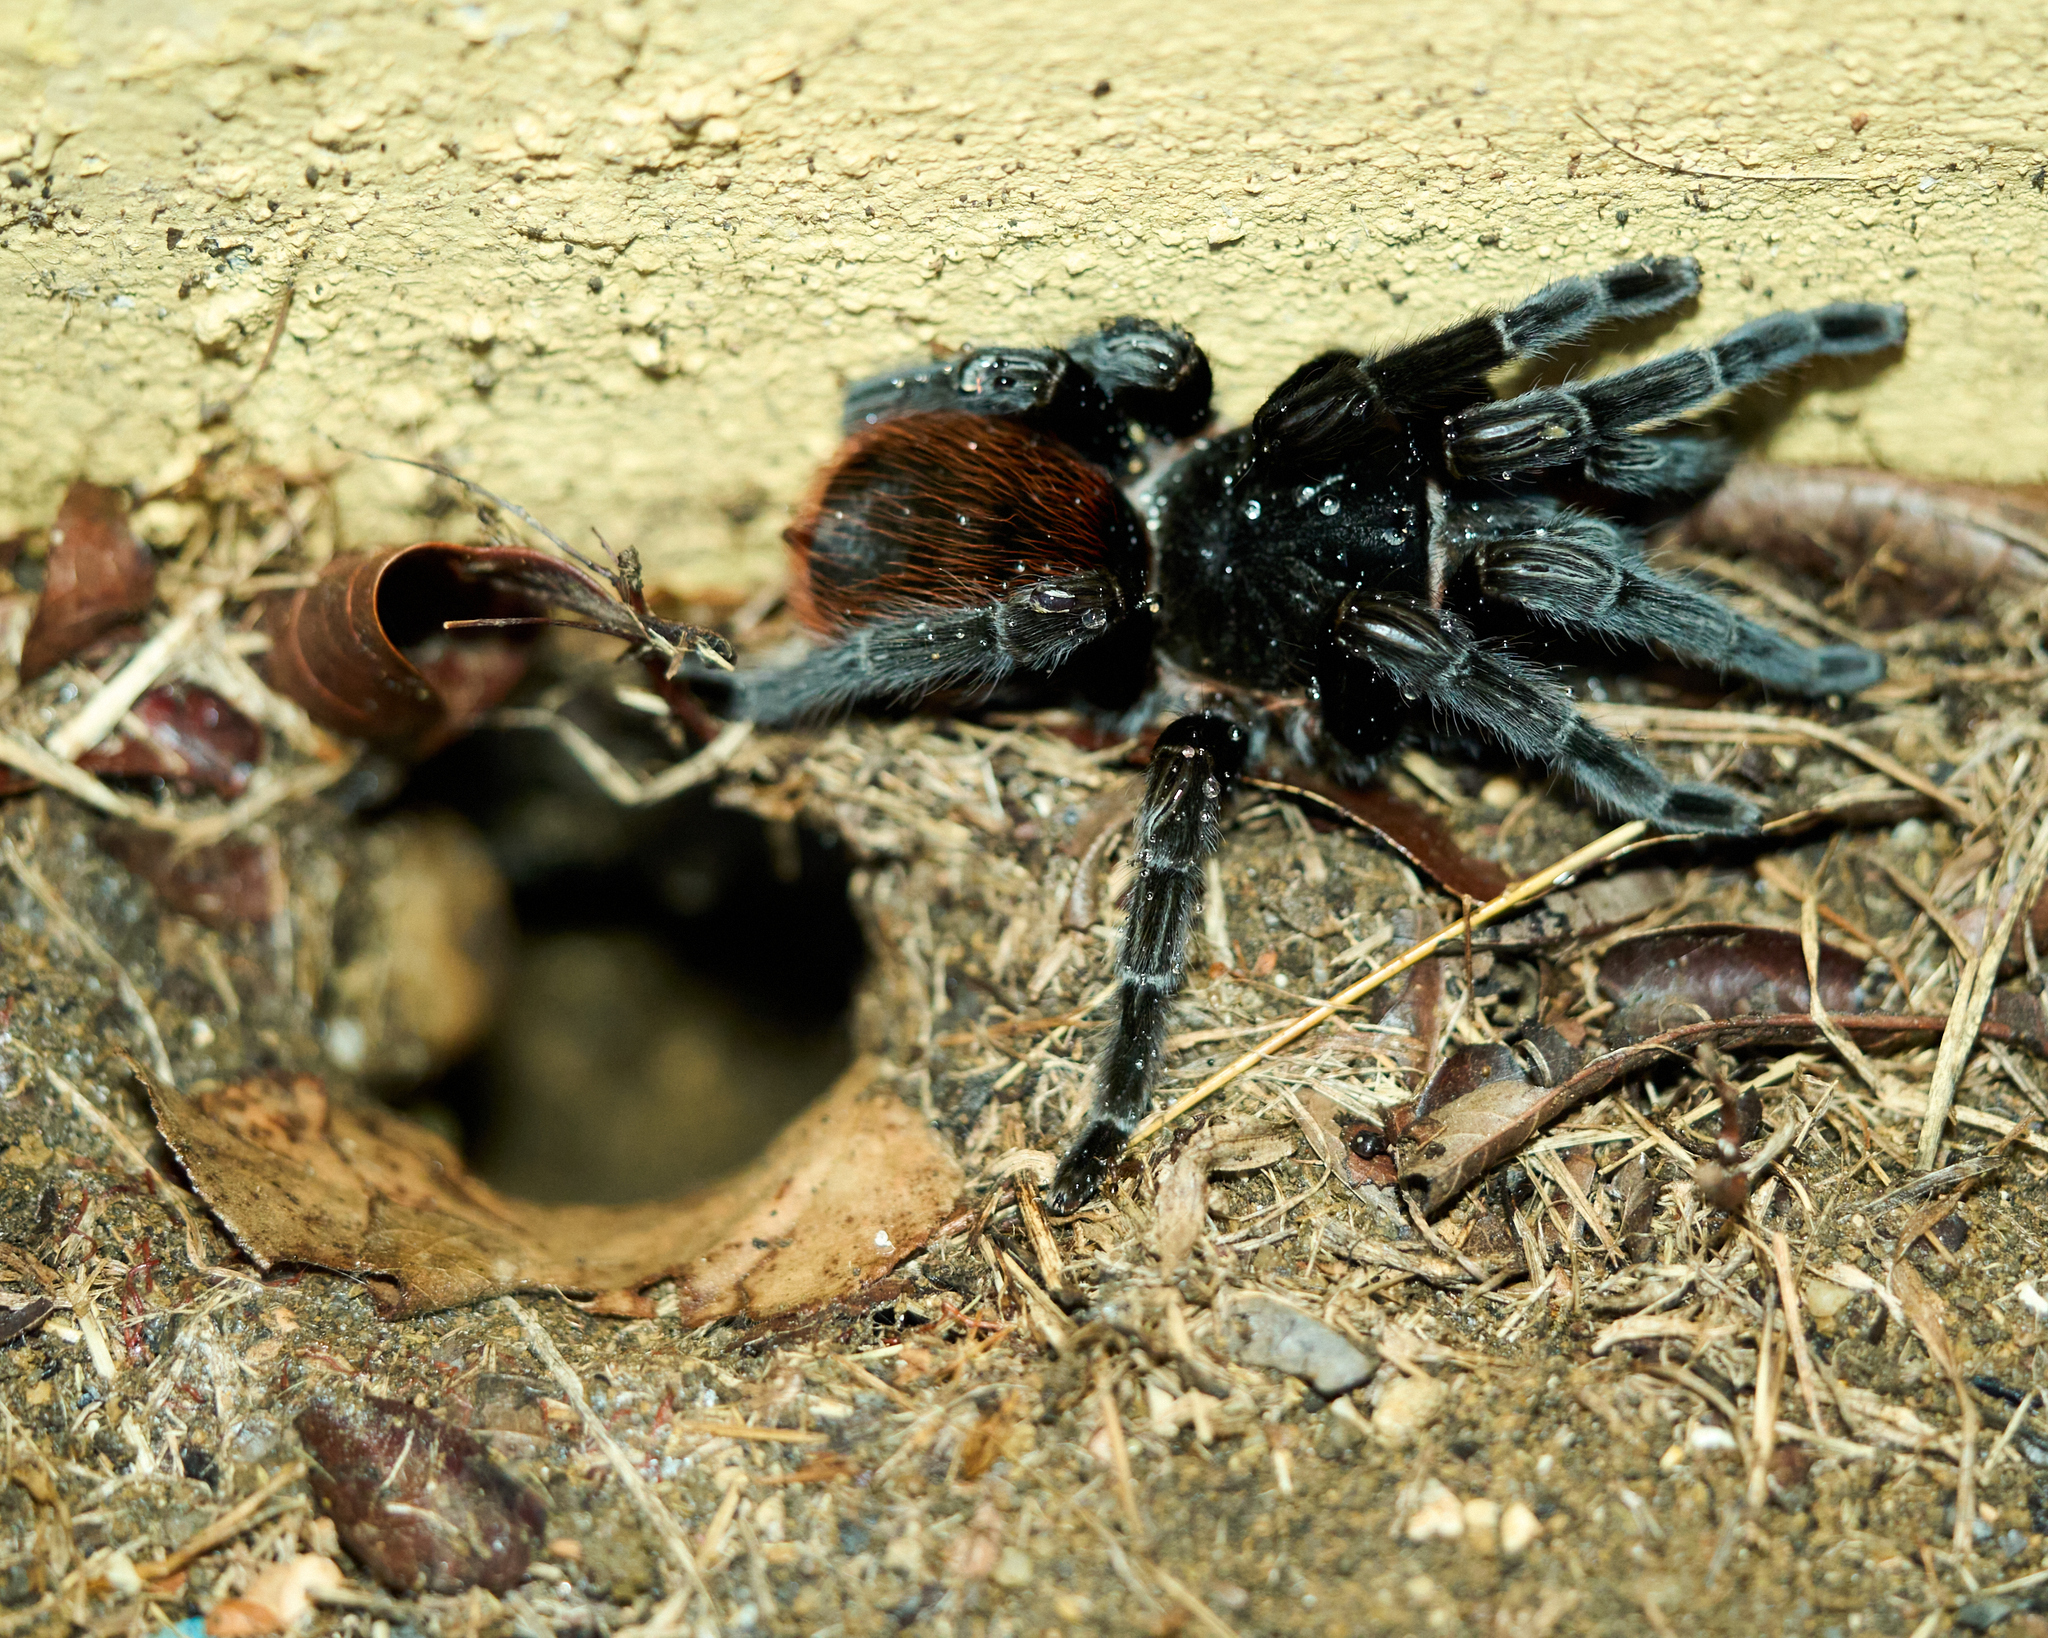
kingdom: Animalia
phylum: Arthropoda
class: Arachnida
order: Araneae
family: Theraphosidae
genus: Tliltocatl
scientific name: Tliltocatl vagans
